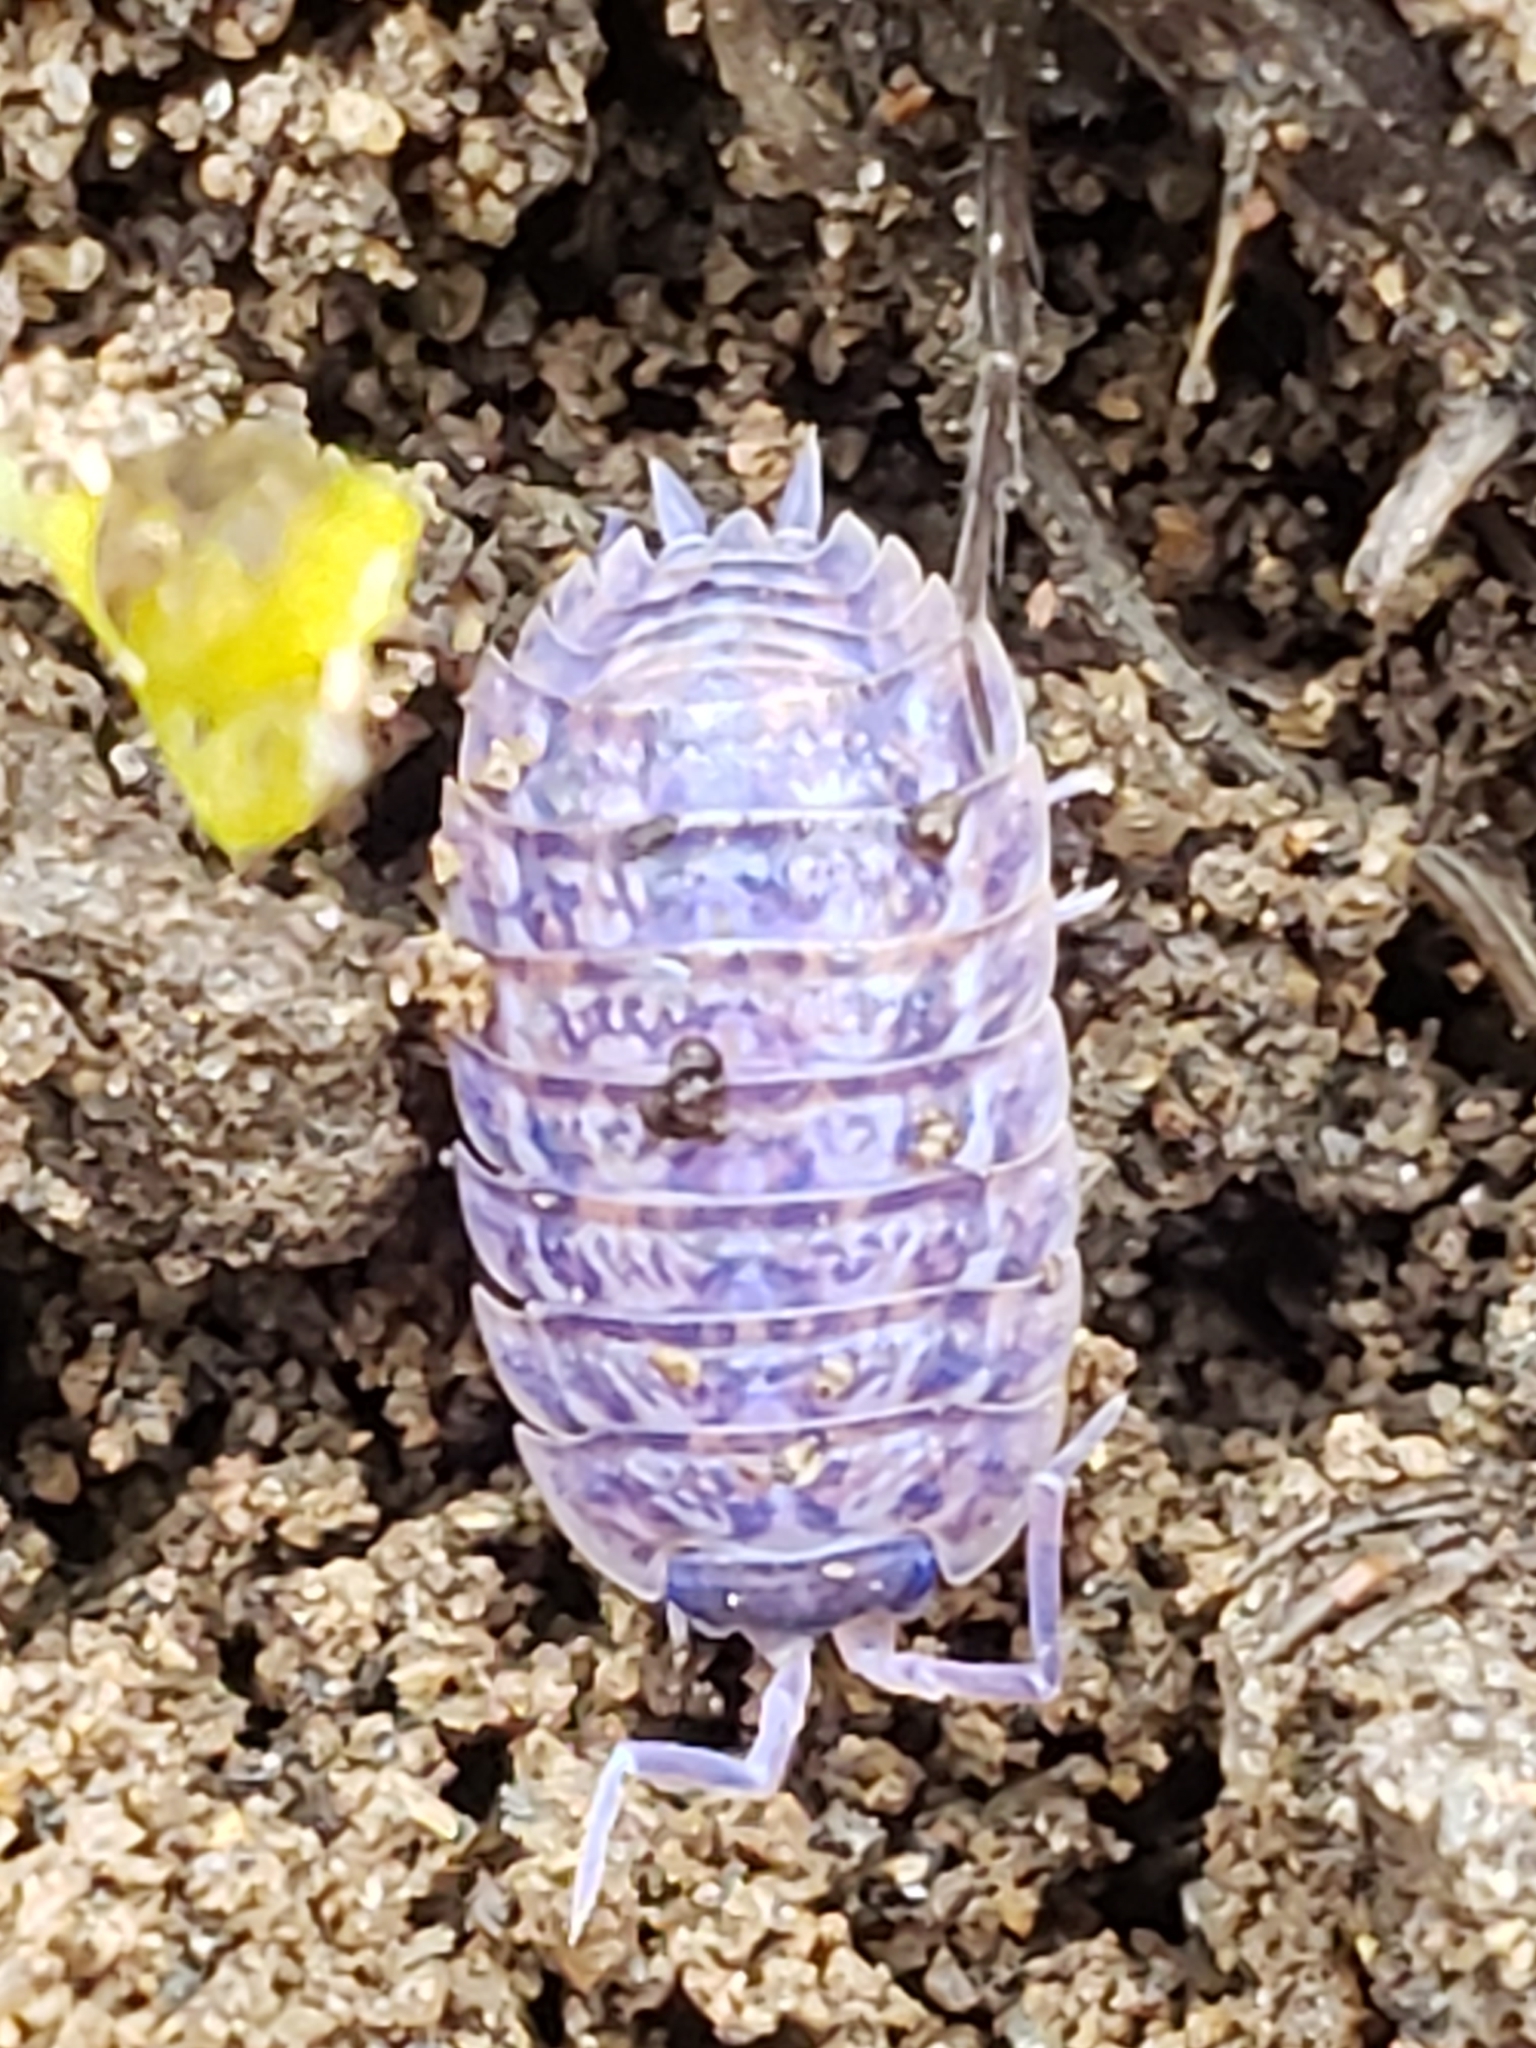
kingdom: Viruses
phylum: Nucleocytoviricota
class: Megaviricetes
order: Pimascovirales
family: Iridoviridae
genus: Iridovirus
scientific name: Iridovirus Invertebrate iridescent virus 31
